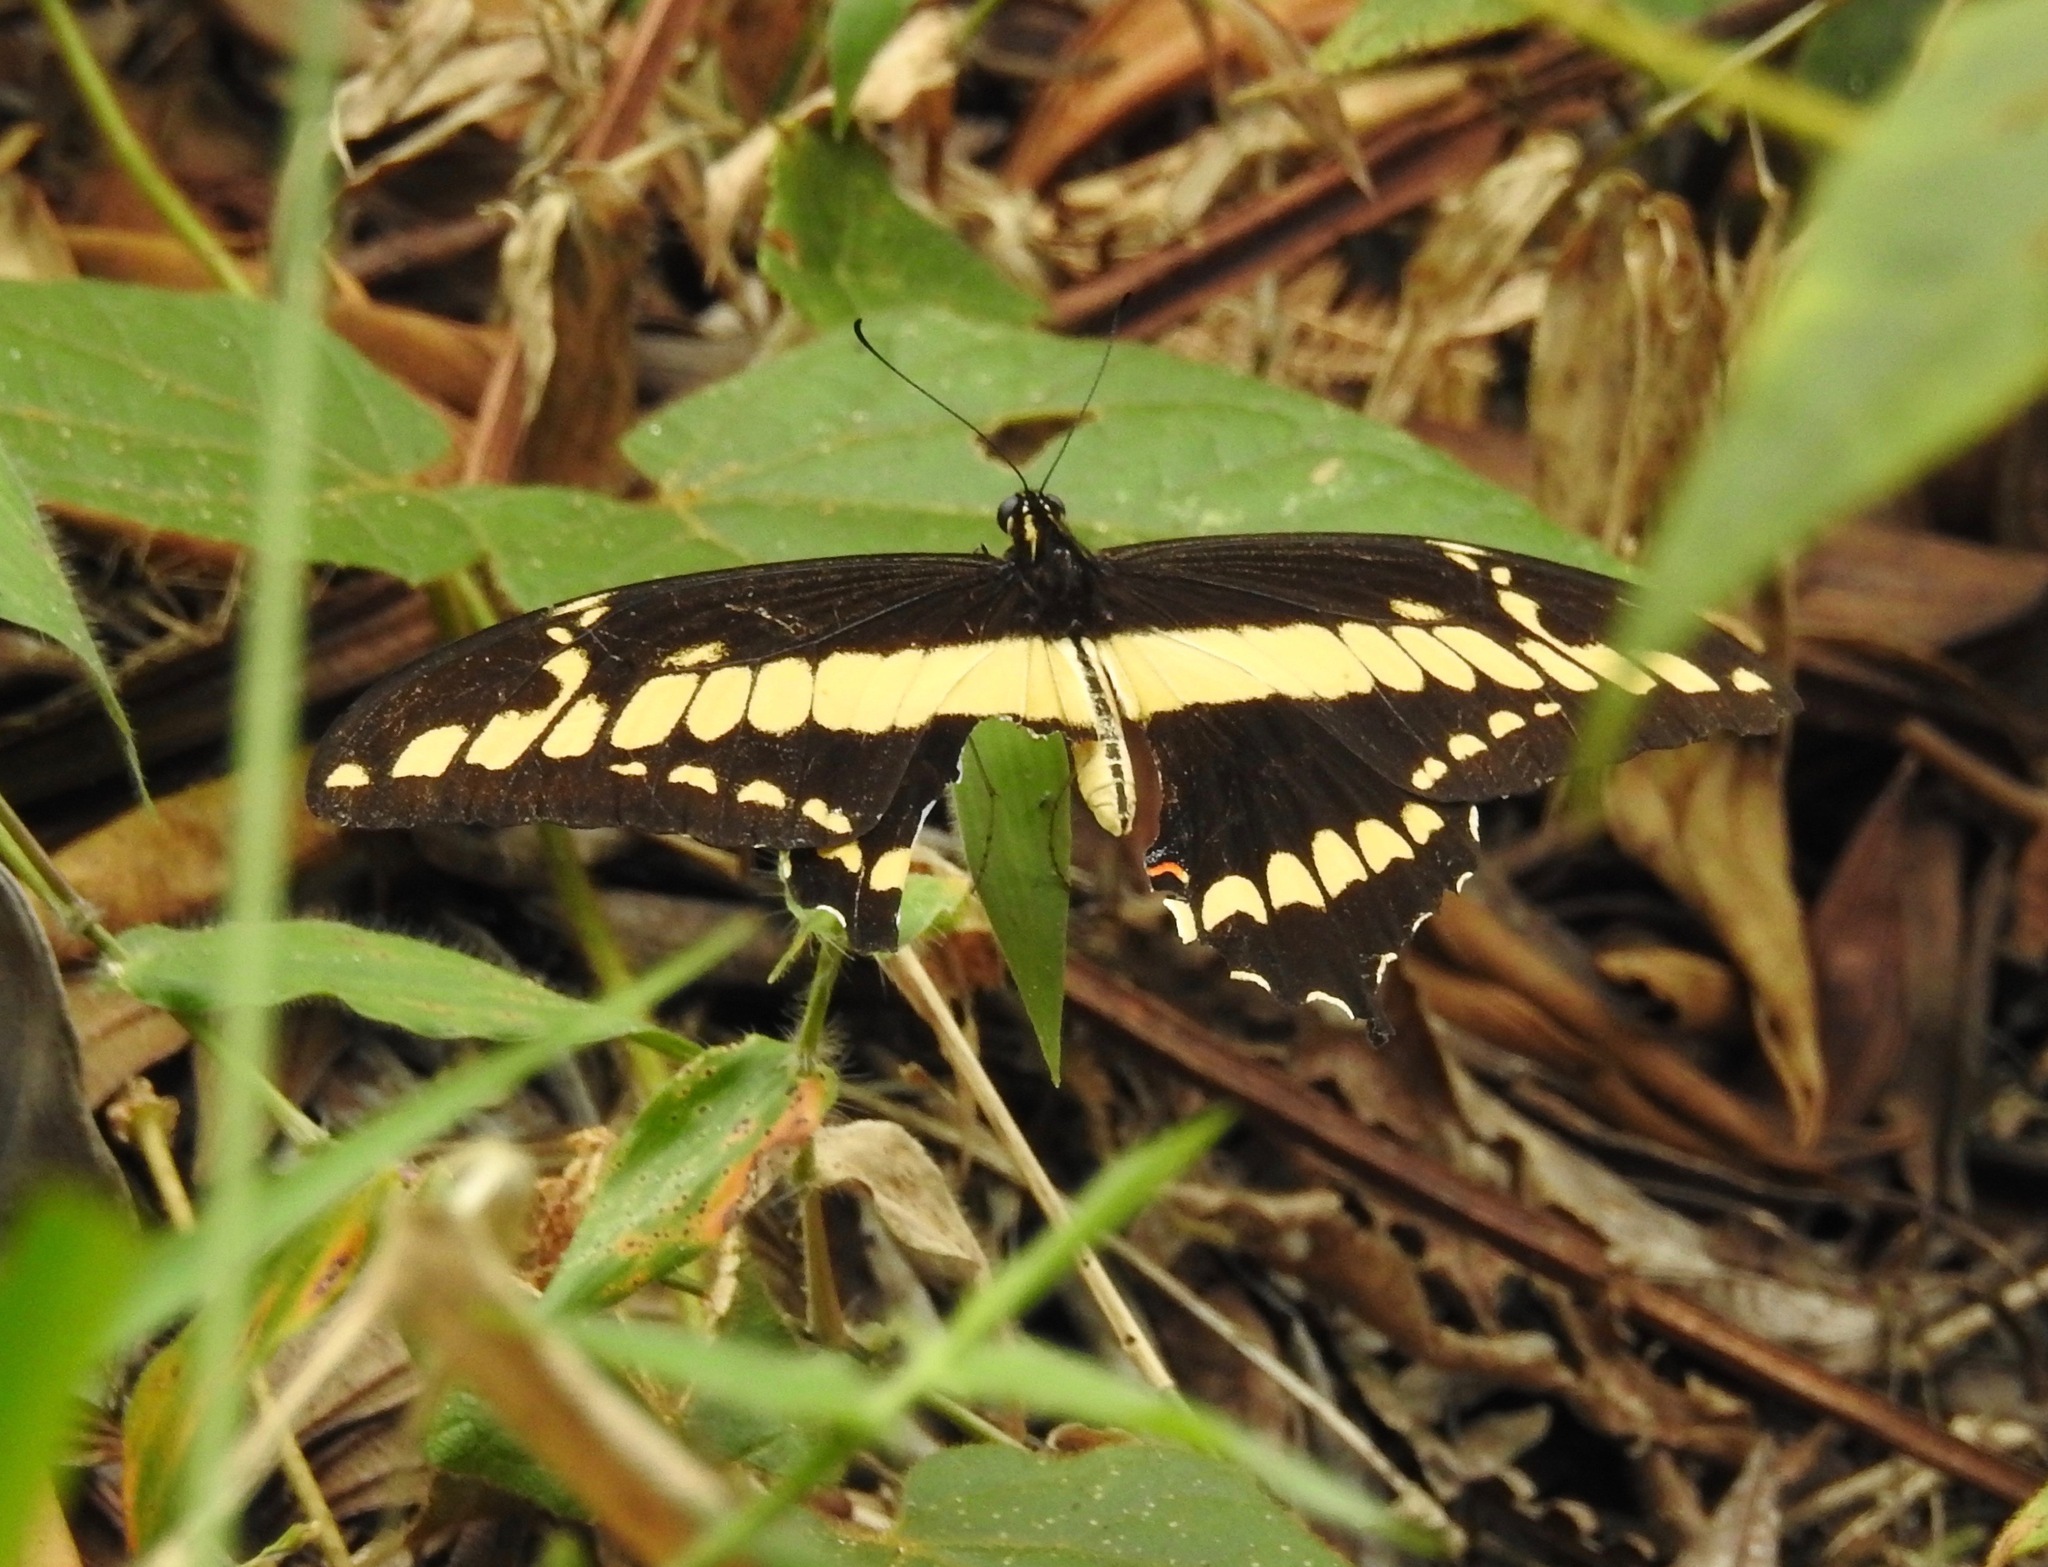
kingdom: Animalia
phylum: Arthropoda
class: Insecta
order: Lepidoptera
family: Papilionidae
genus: Papilio
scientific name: Papilio thoas
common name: King swallowtail
